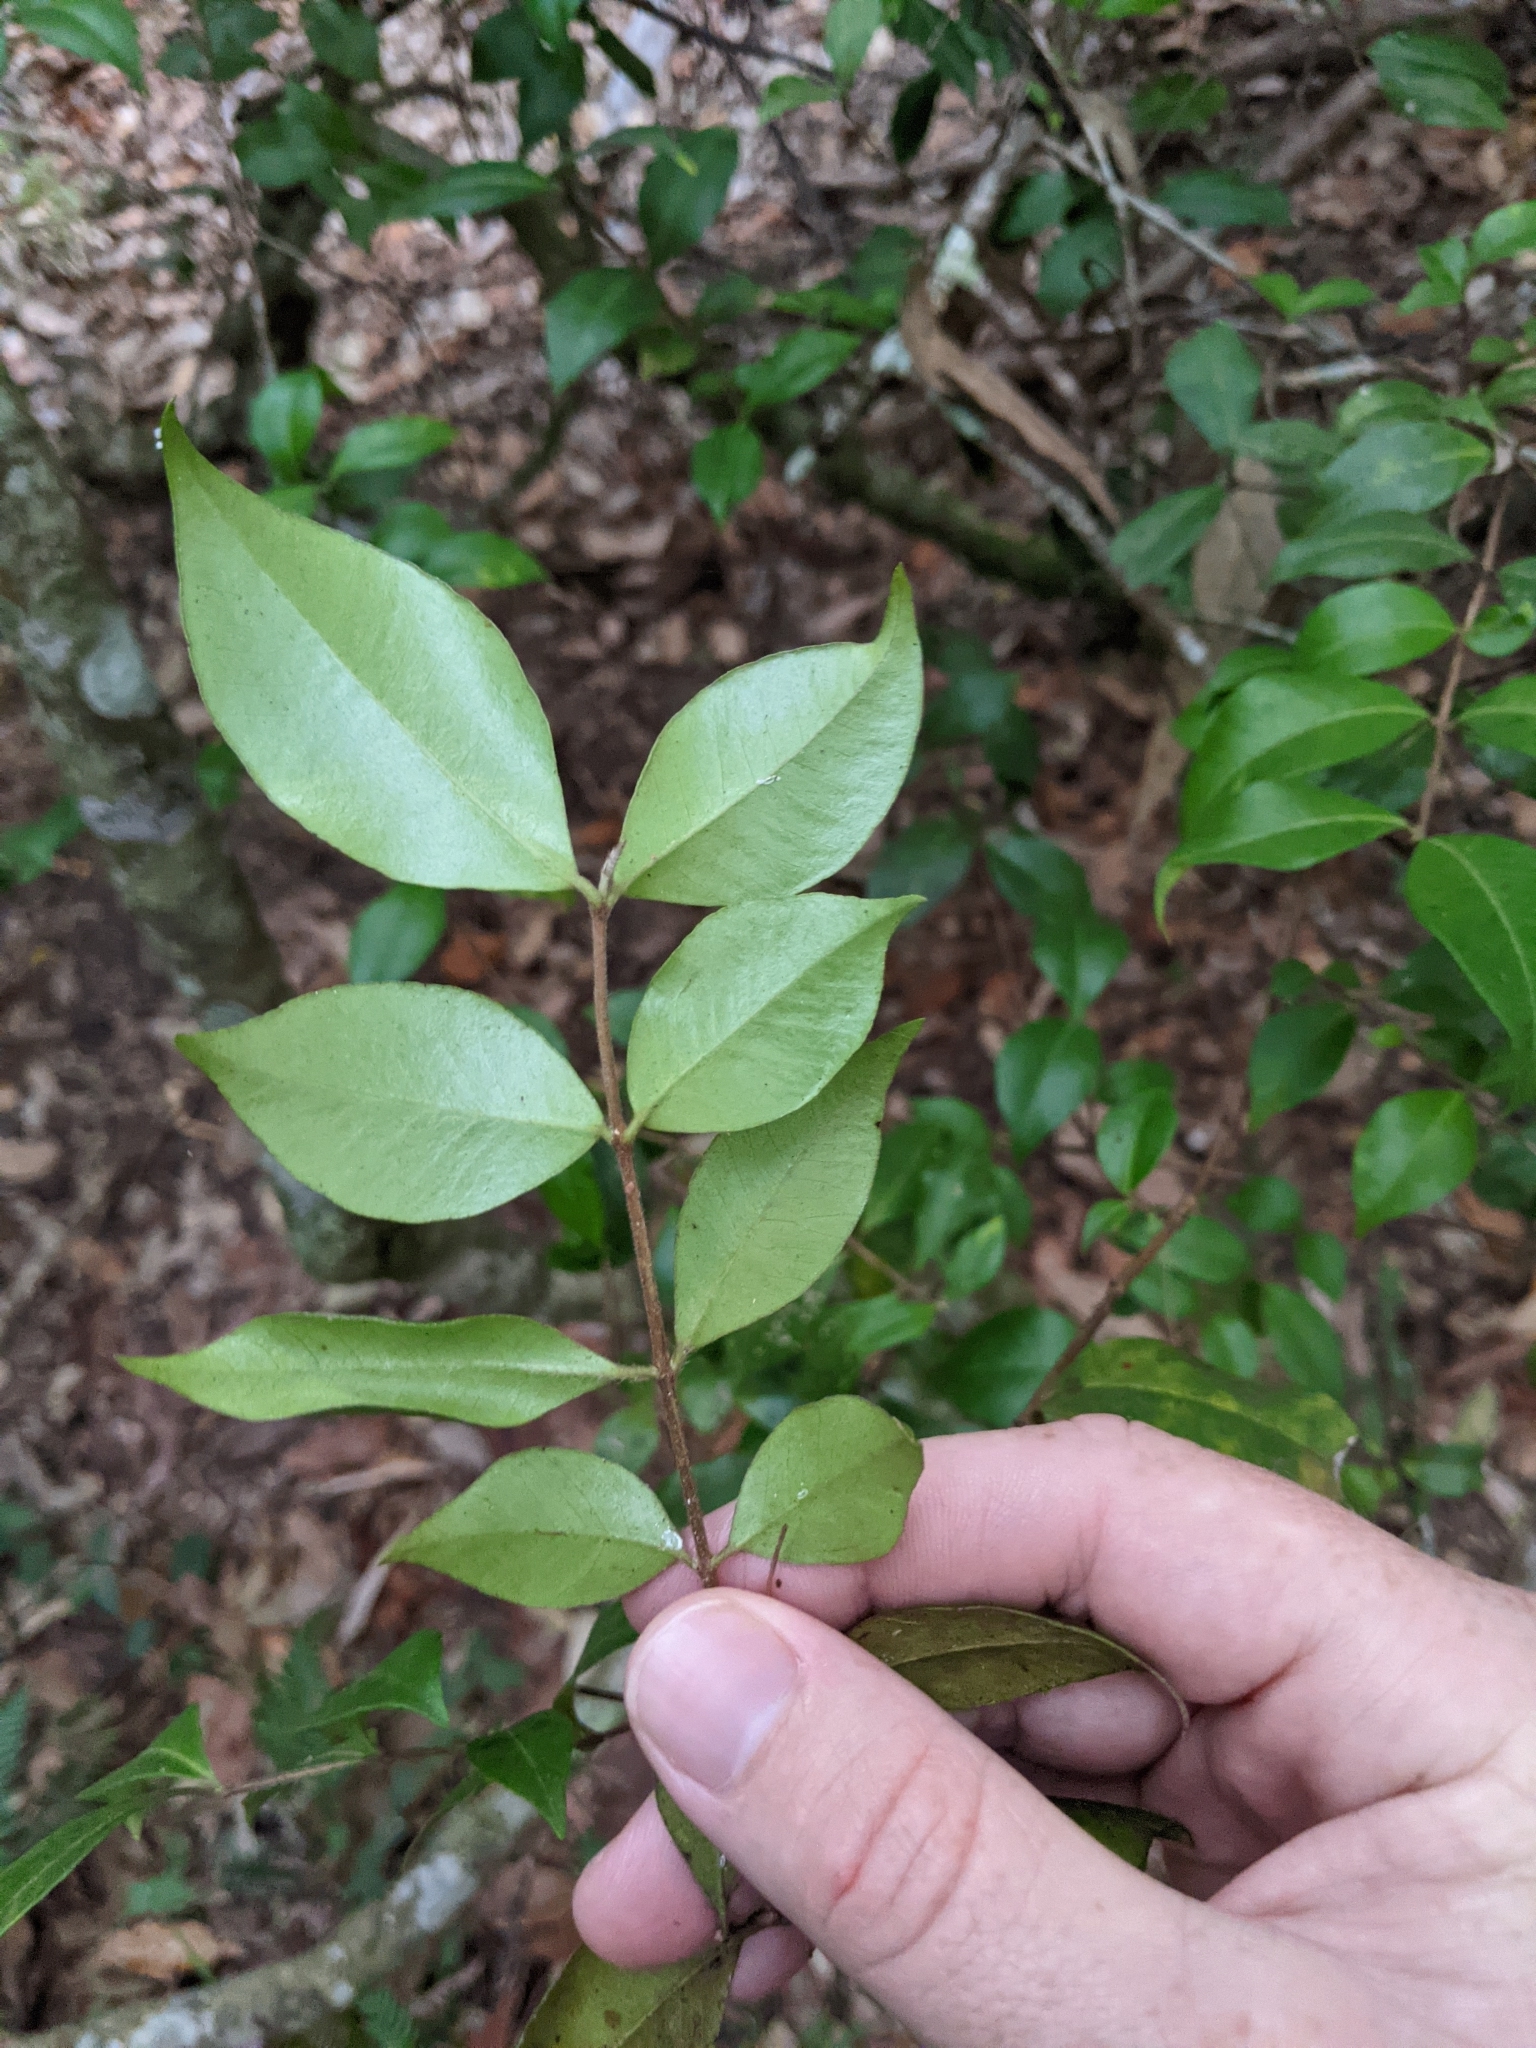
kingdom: Plantae
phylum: Tracheophyta
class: Magnoliopsida
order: Myrtales
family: Myrtaceae
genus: Backhousia
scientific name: Backhousia myrtifolia
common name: Carrol
